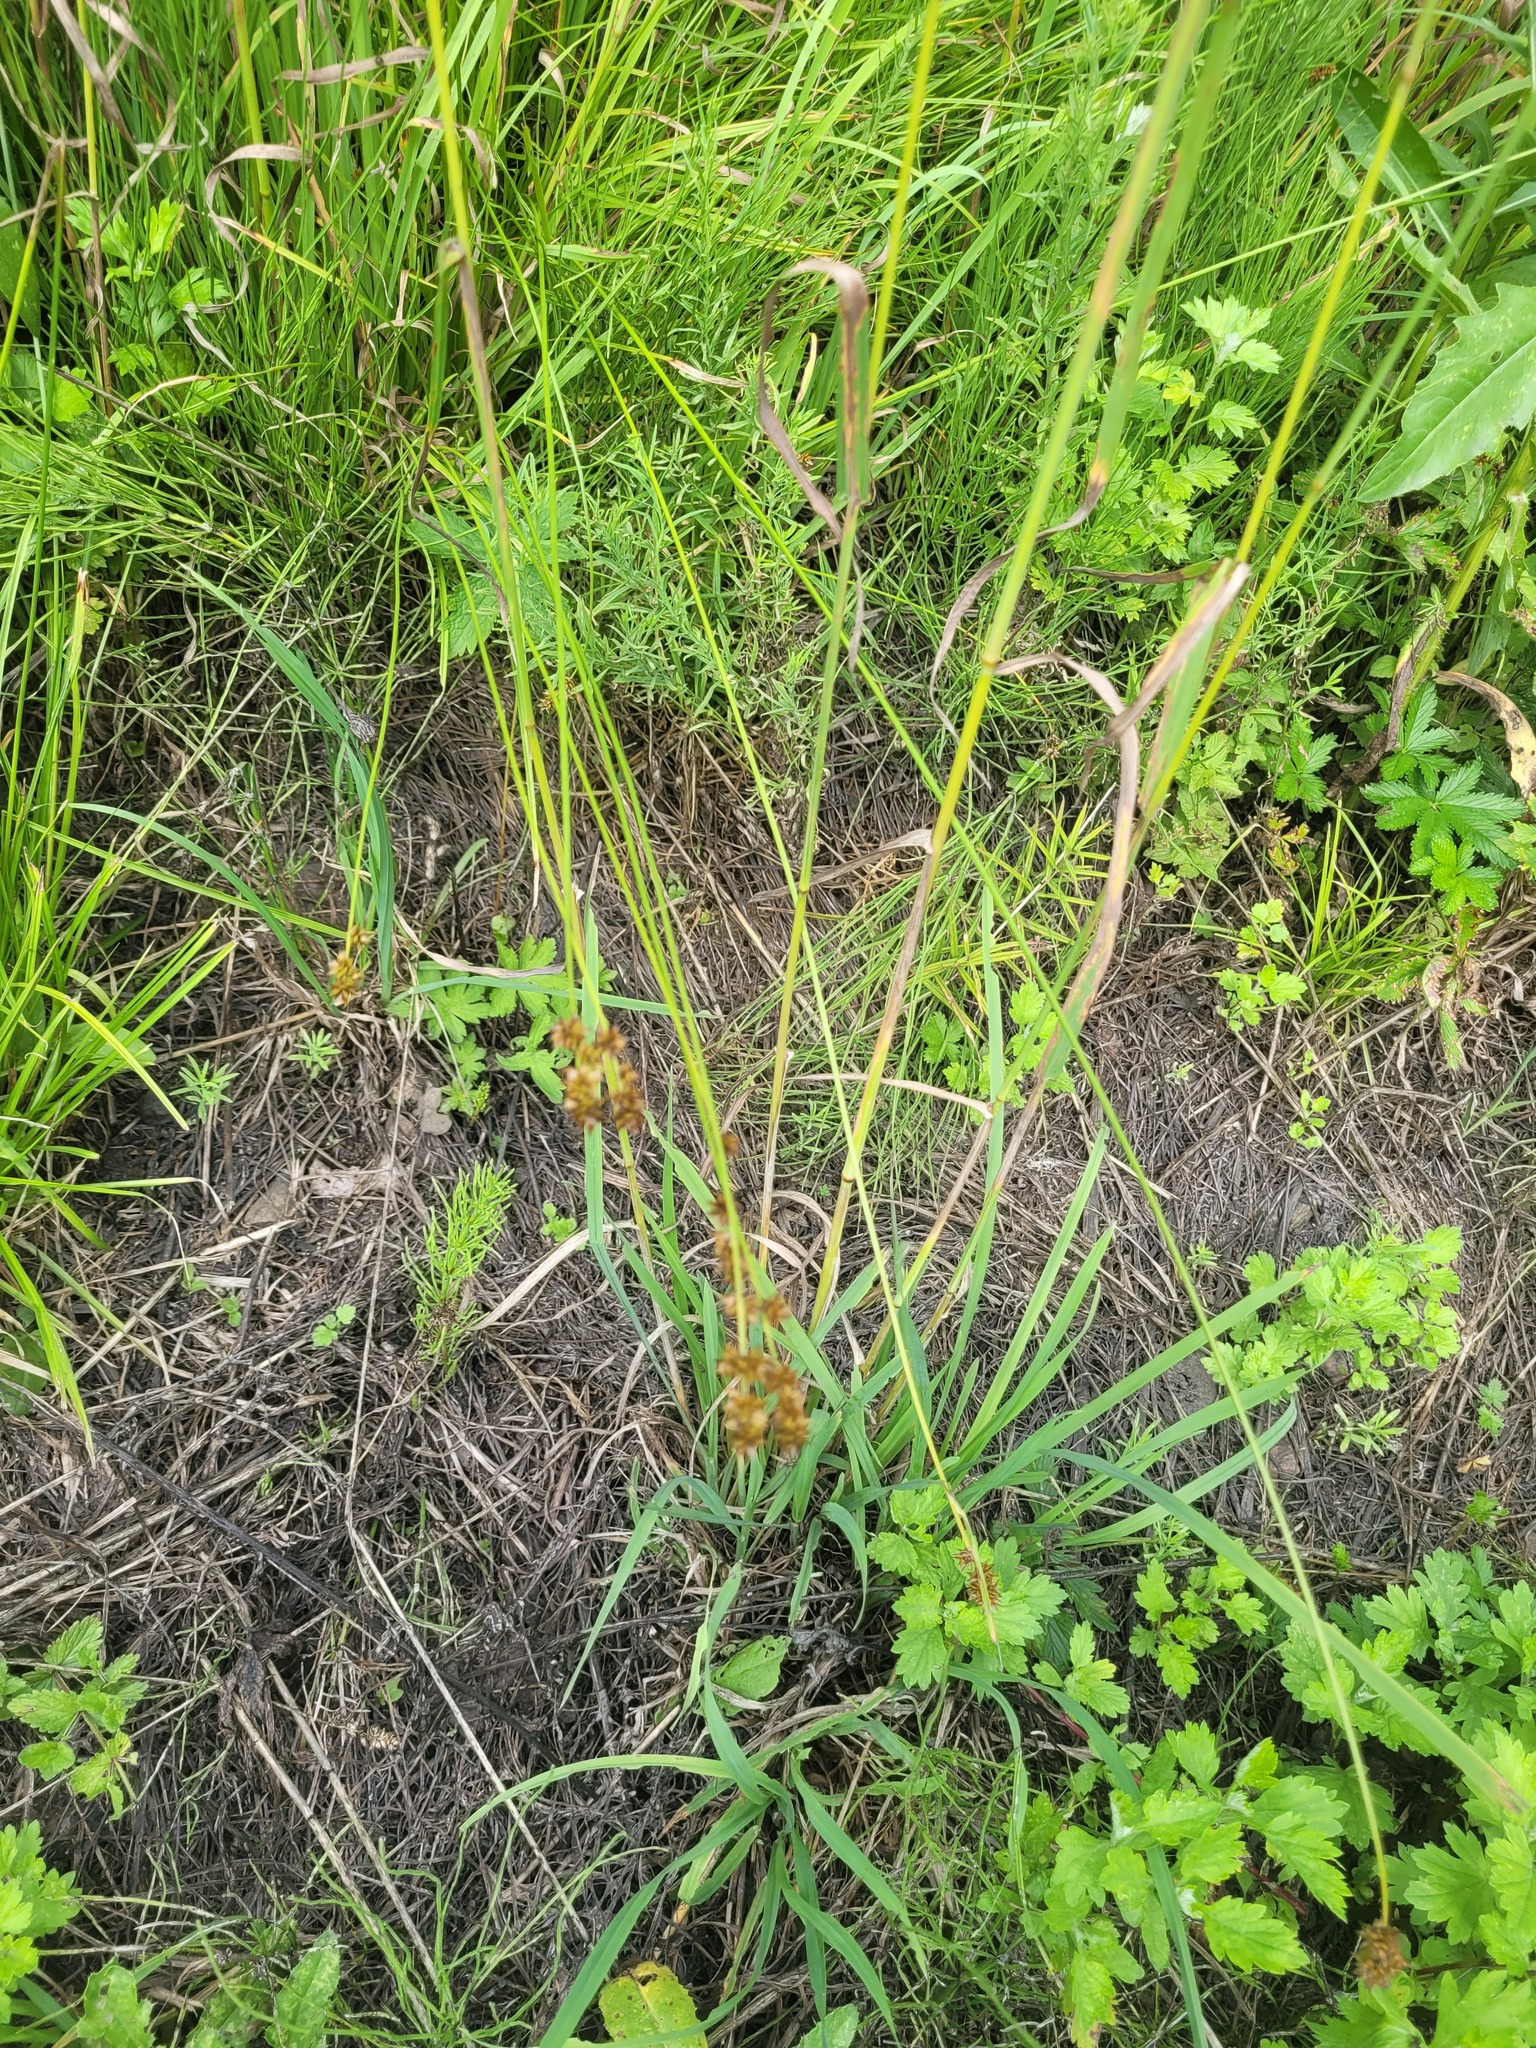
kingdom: Plantae
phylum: Tracheophyta
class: Liliopsida
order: Poales
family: Cyperaceae
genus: Carex
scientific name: Carex muricata
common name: Rough sedge
